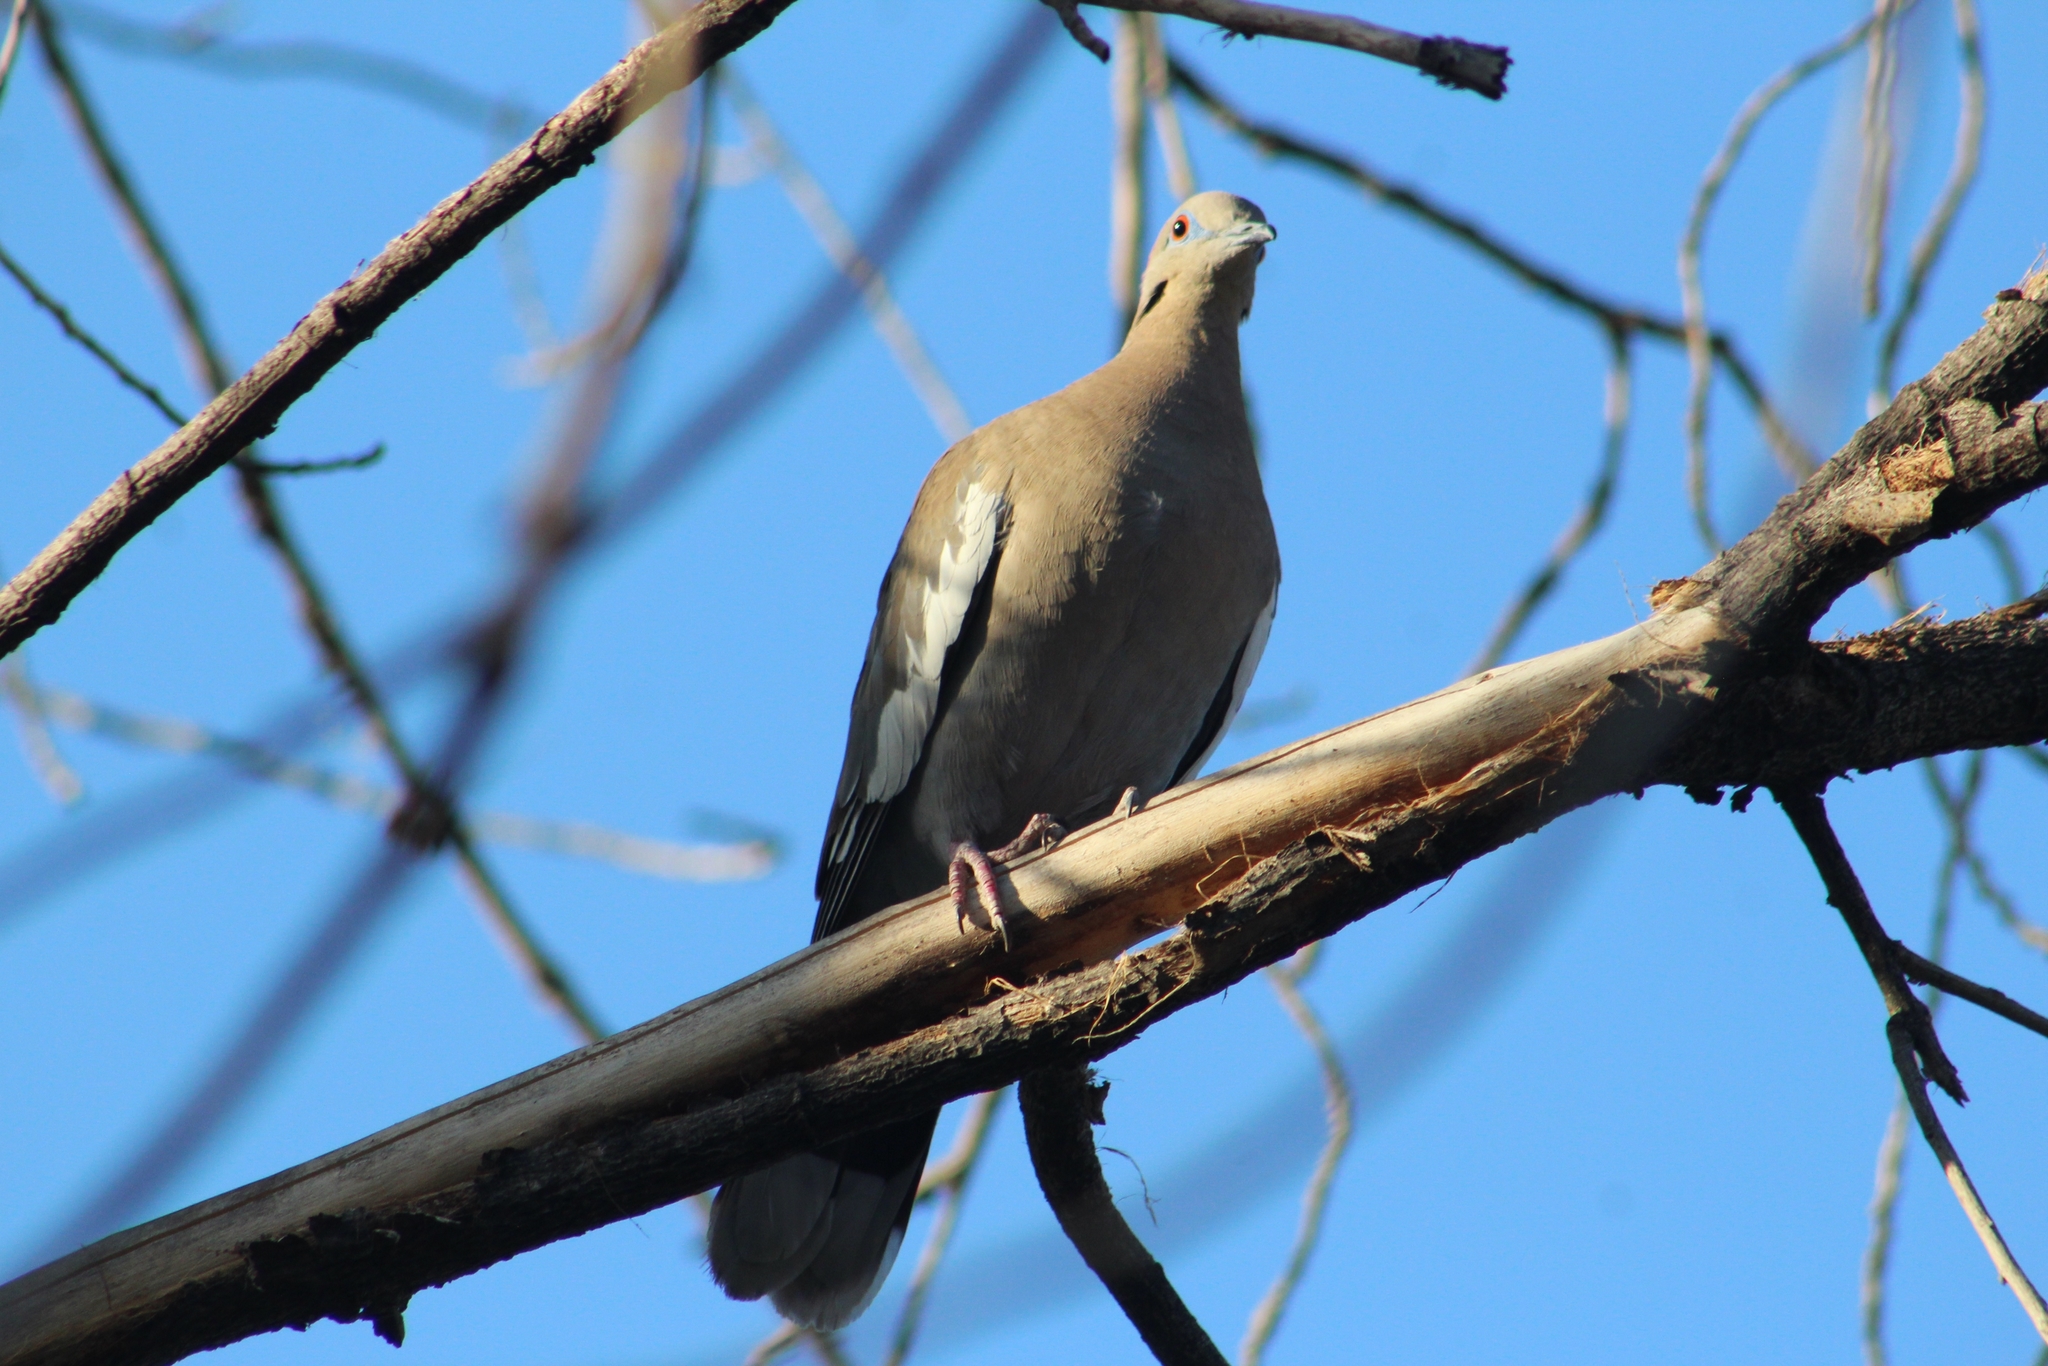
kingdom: Animalia
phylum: Chordata
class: Aves
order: Columbiformes
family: Columbidae
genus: Zenaida
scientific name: Zenaida asiatica
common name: White-winged dove
